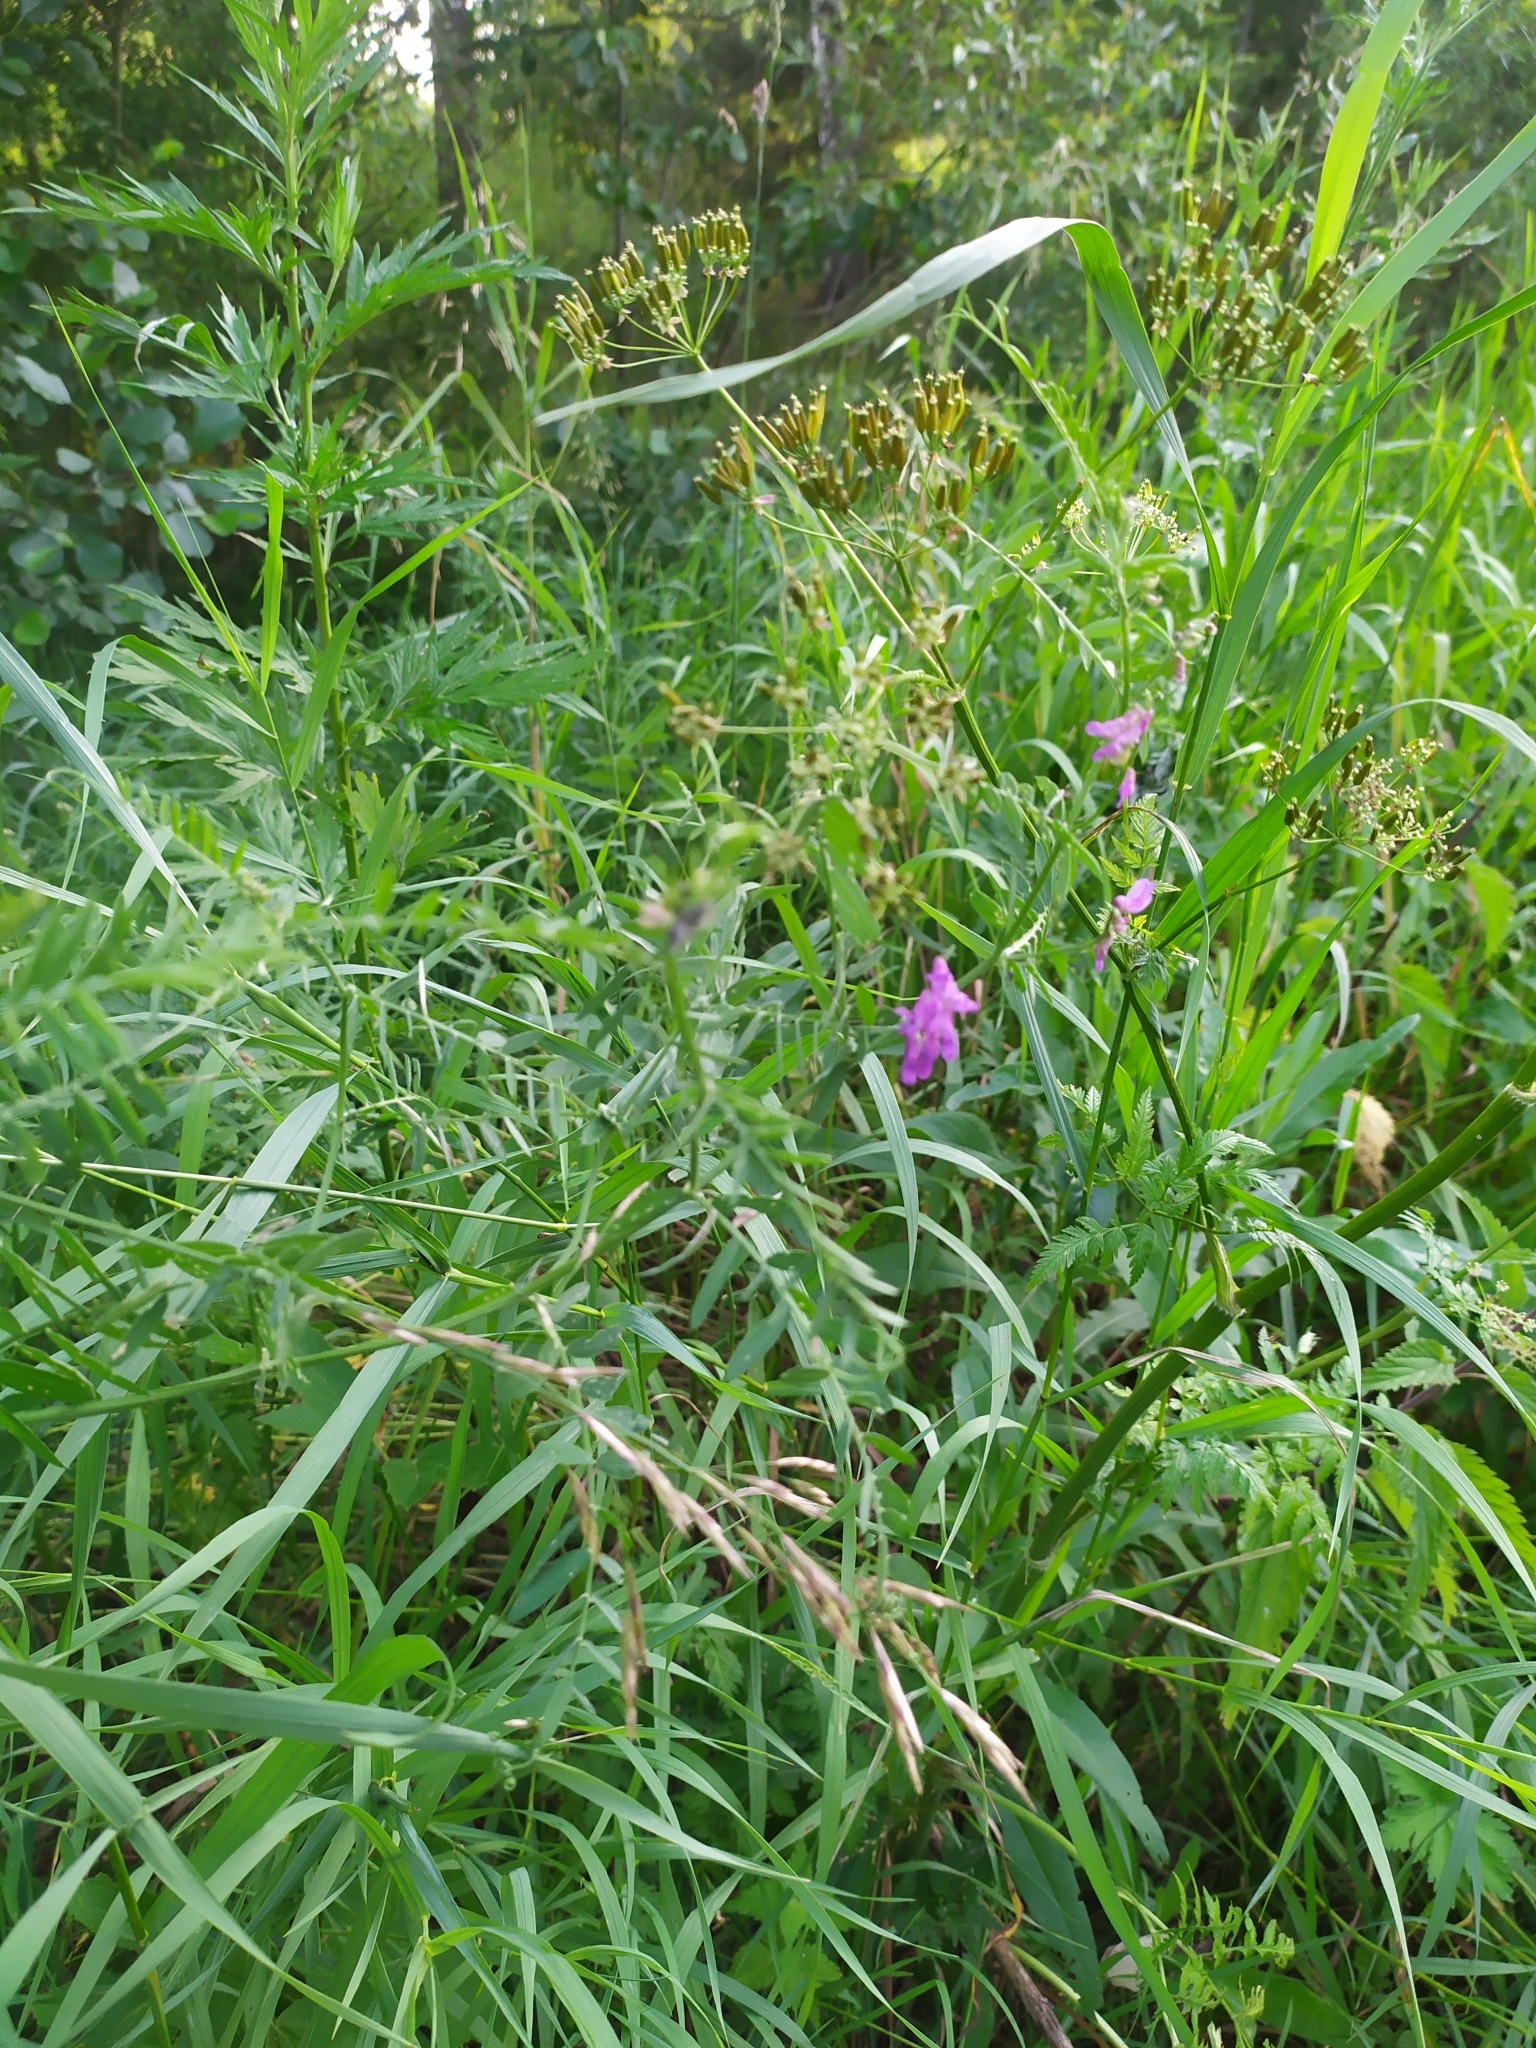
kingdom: Plantae
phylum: Tracheophyta
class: Magnoliopsida
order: Fabales
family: Fabaceae
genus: Vicia
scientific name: Vicia sativa
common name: Garden vetch
